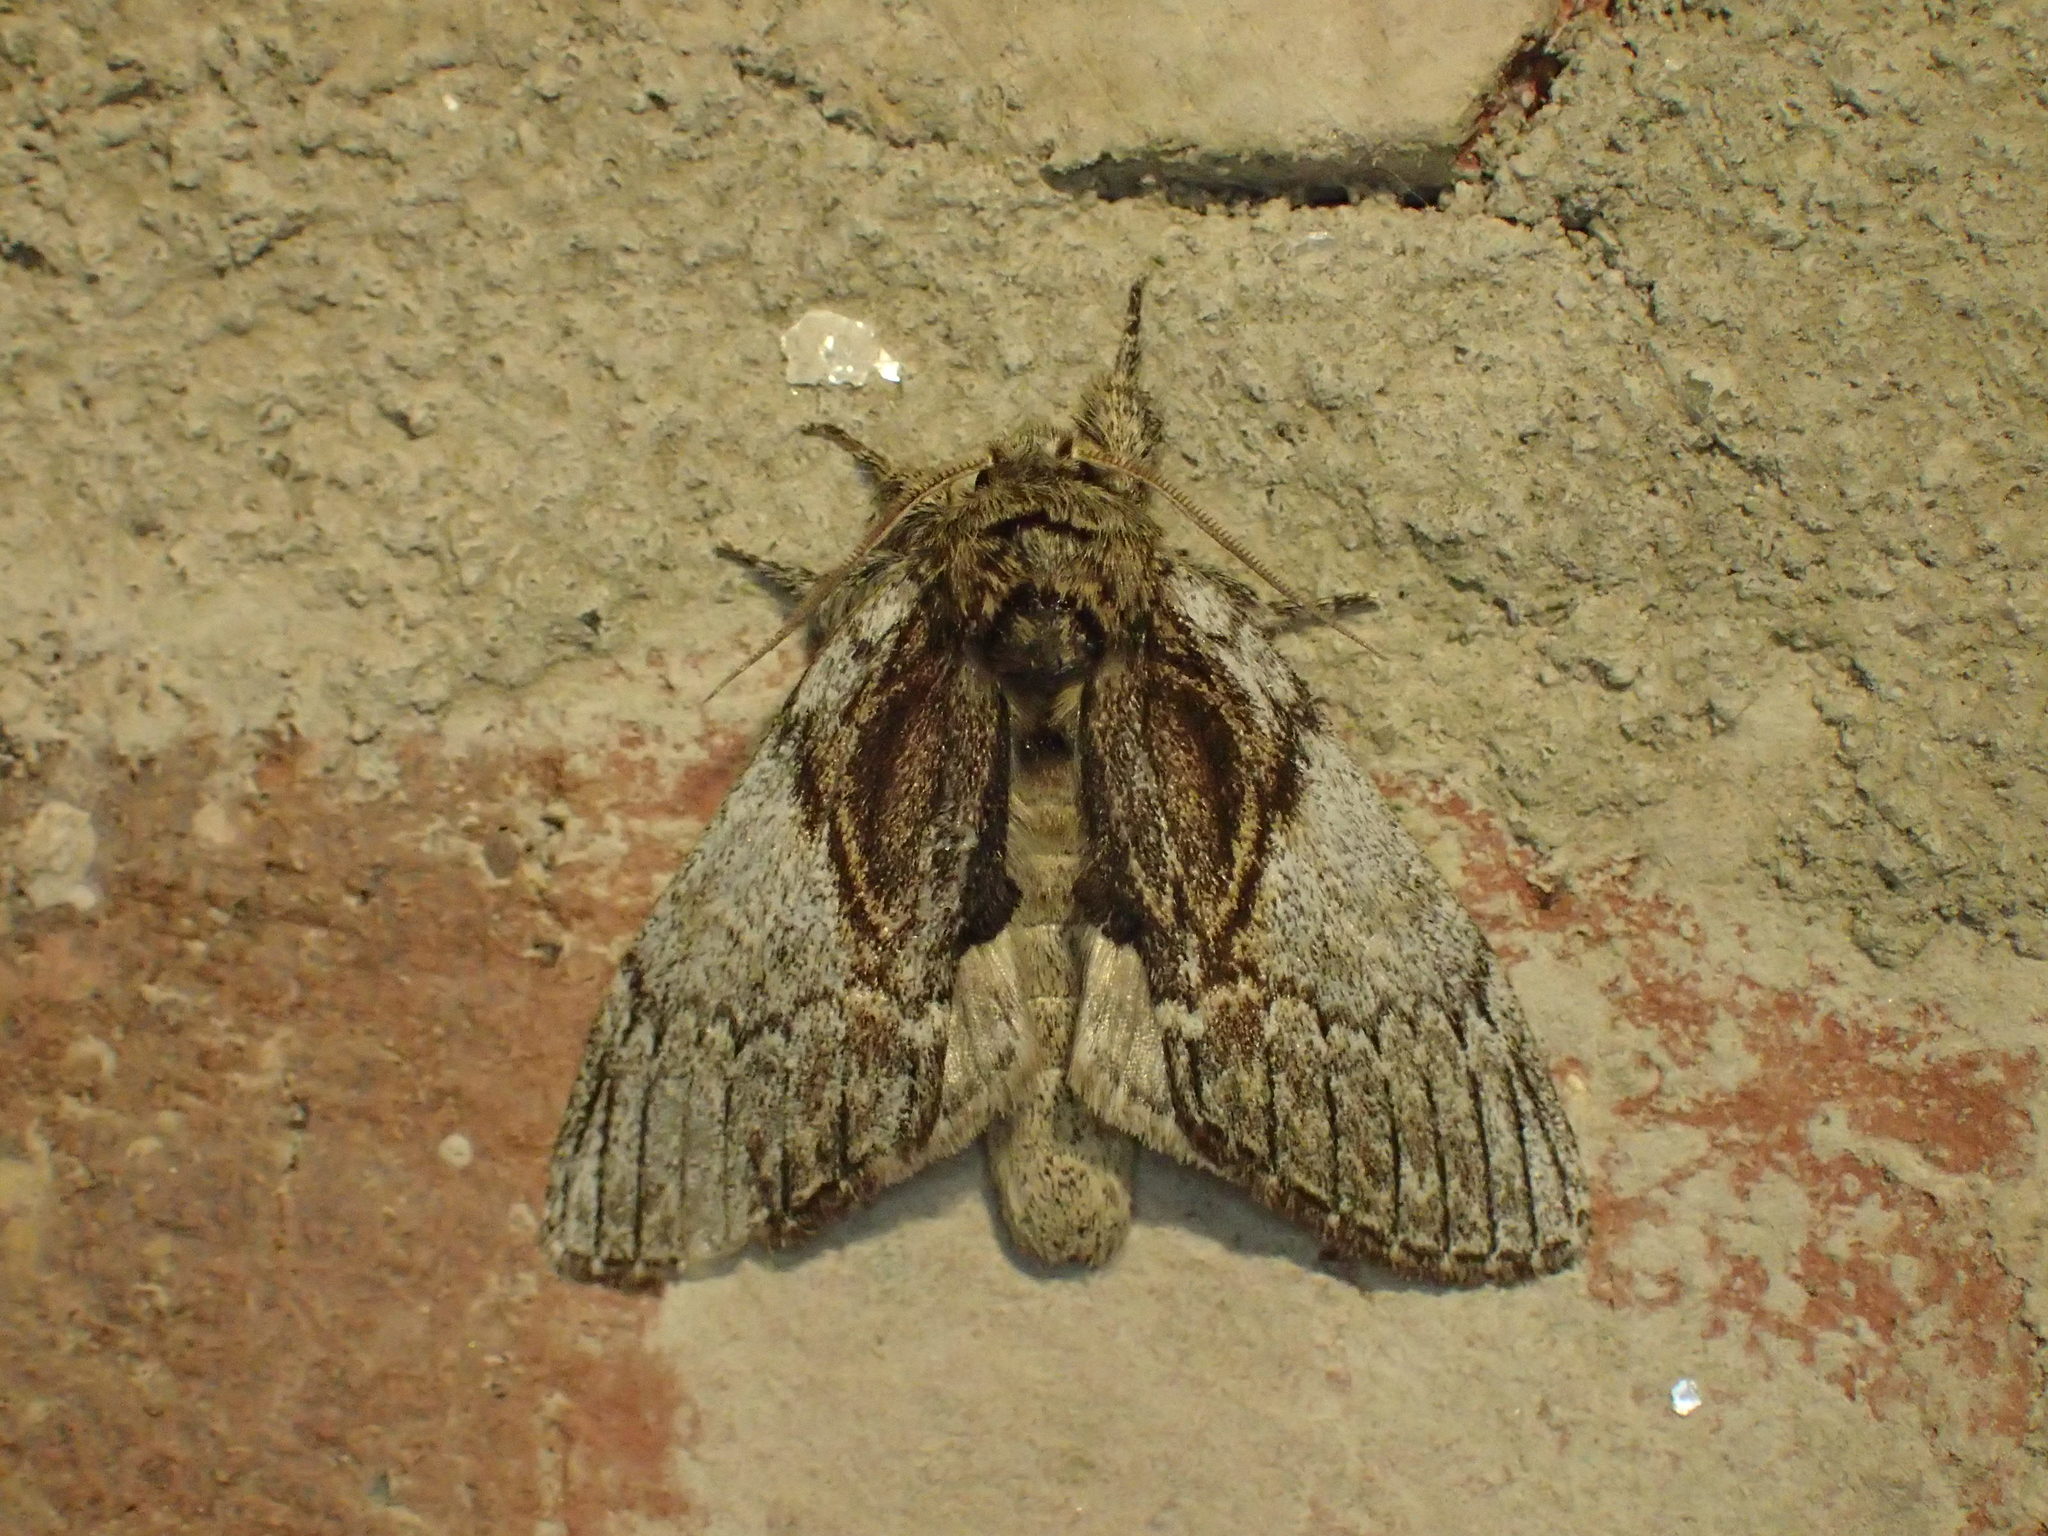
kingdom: Animalia
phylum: Arthropoda
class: Insecta
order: Lepidoptera
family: Notodontidae
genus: Peridea
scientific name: Peridea basitriens
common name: Oval-based prominent
